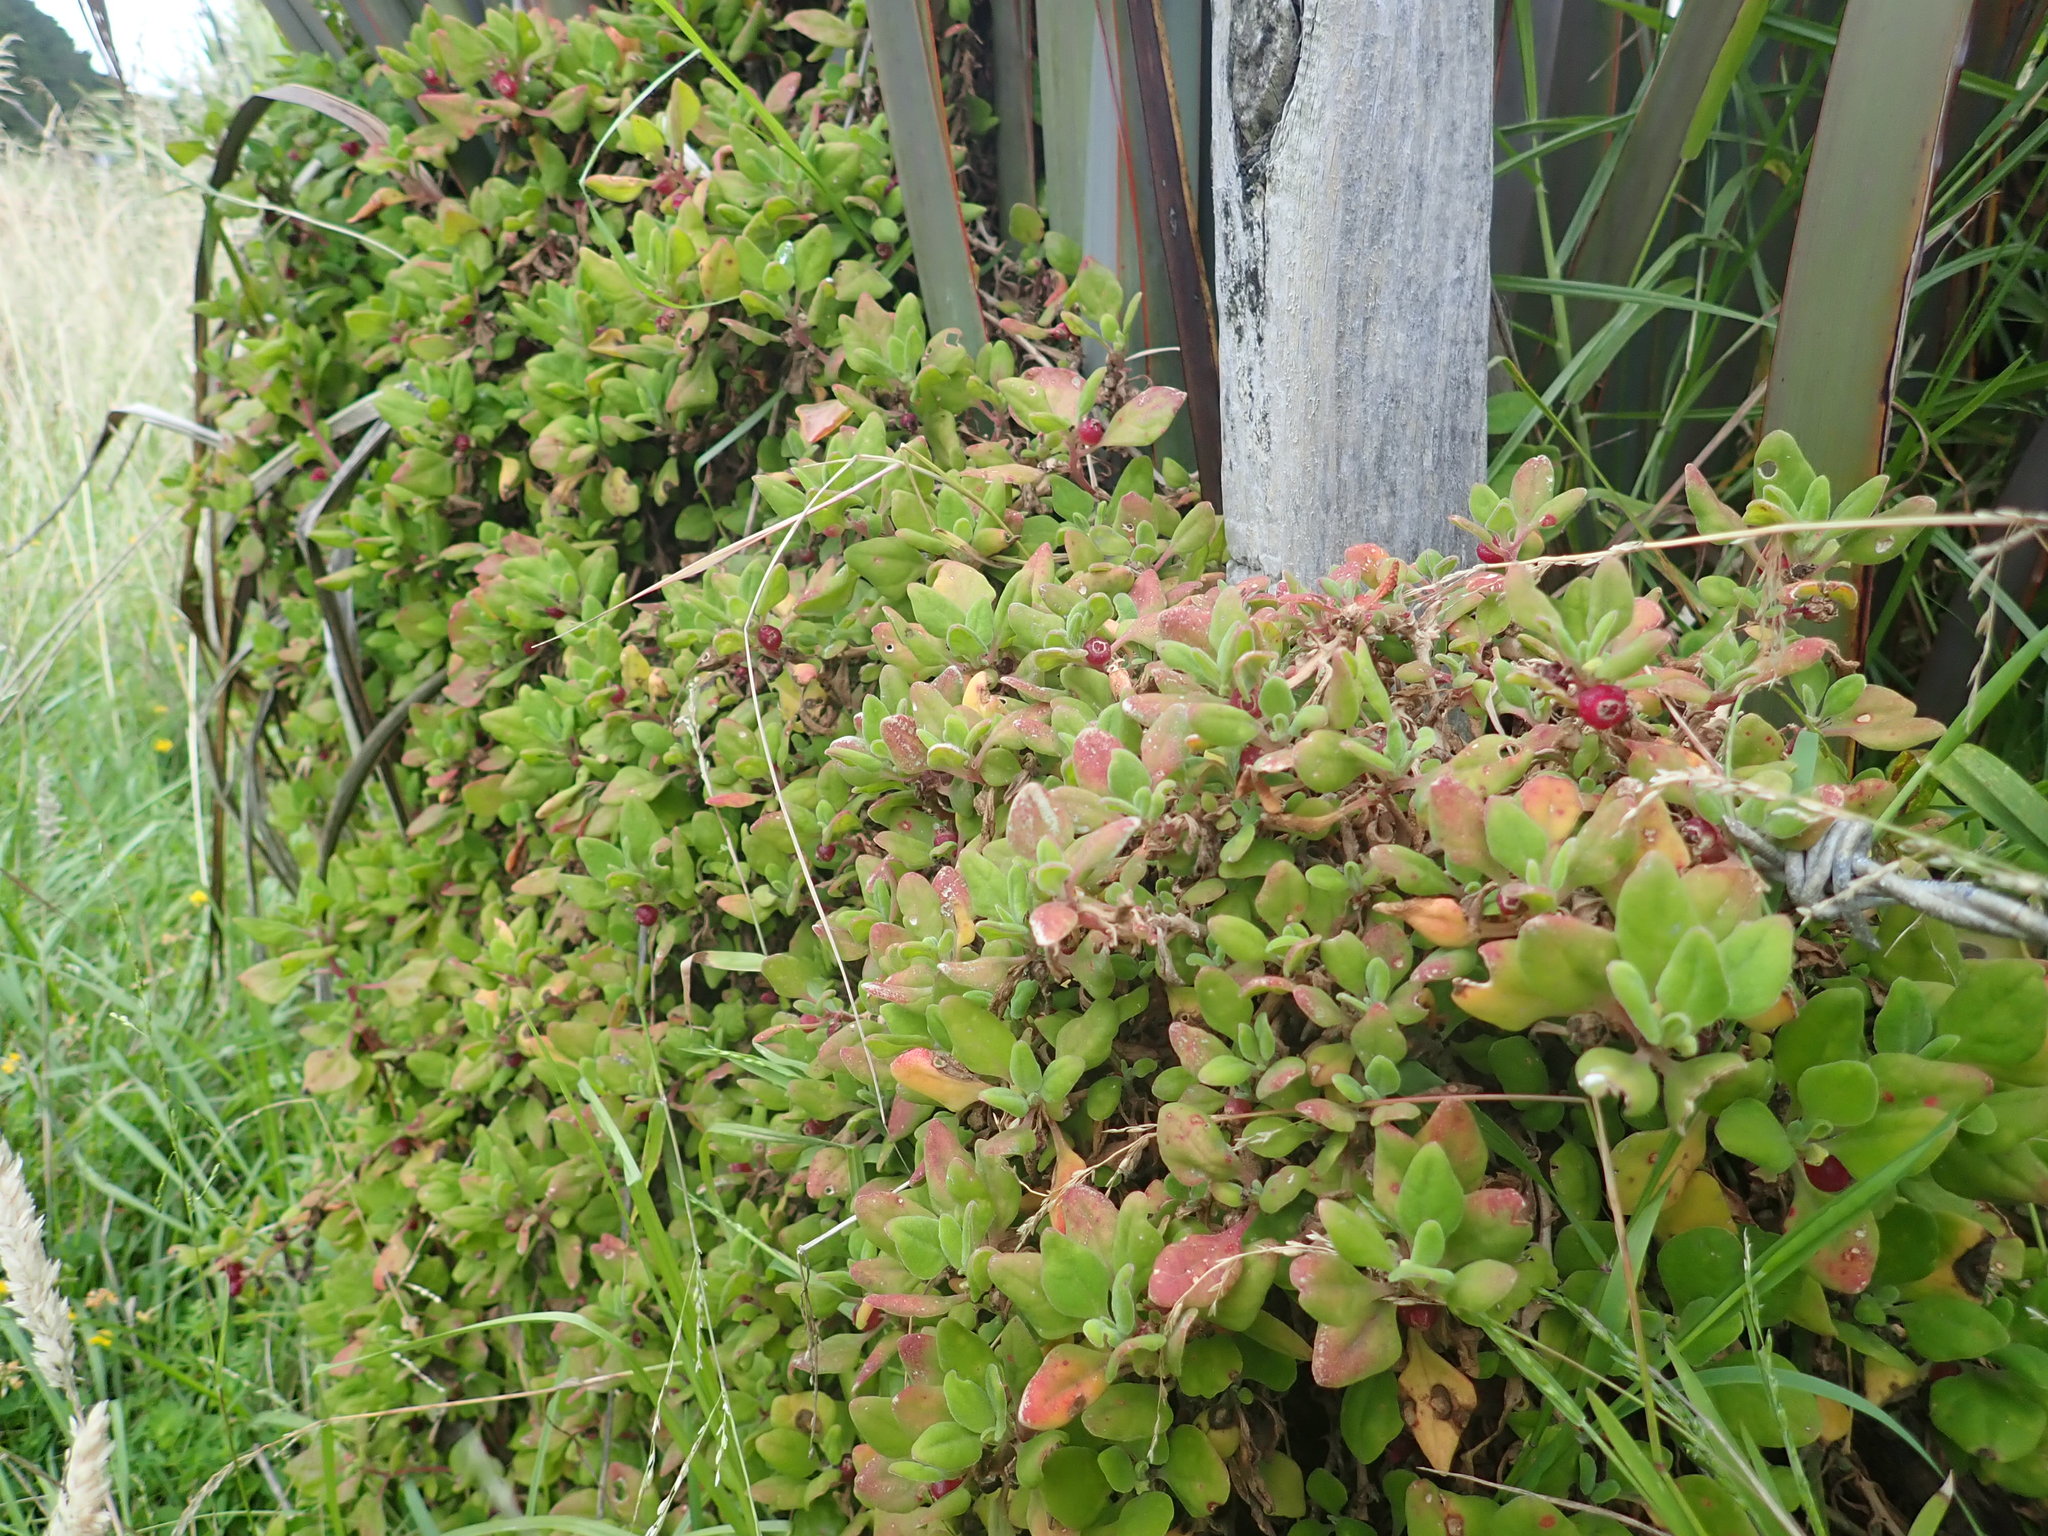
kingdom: Plantae
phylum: Tracheophyta
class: Magnoliopsida
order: Caryophyllales
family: Aizoaceae
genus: Tetragonia
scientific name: Tetragonia implexicoma
